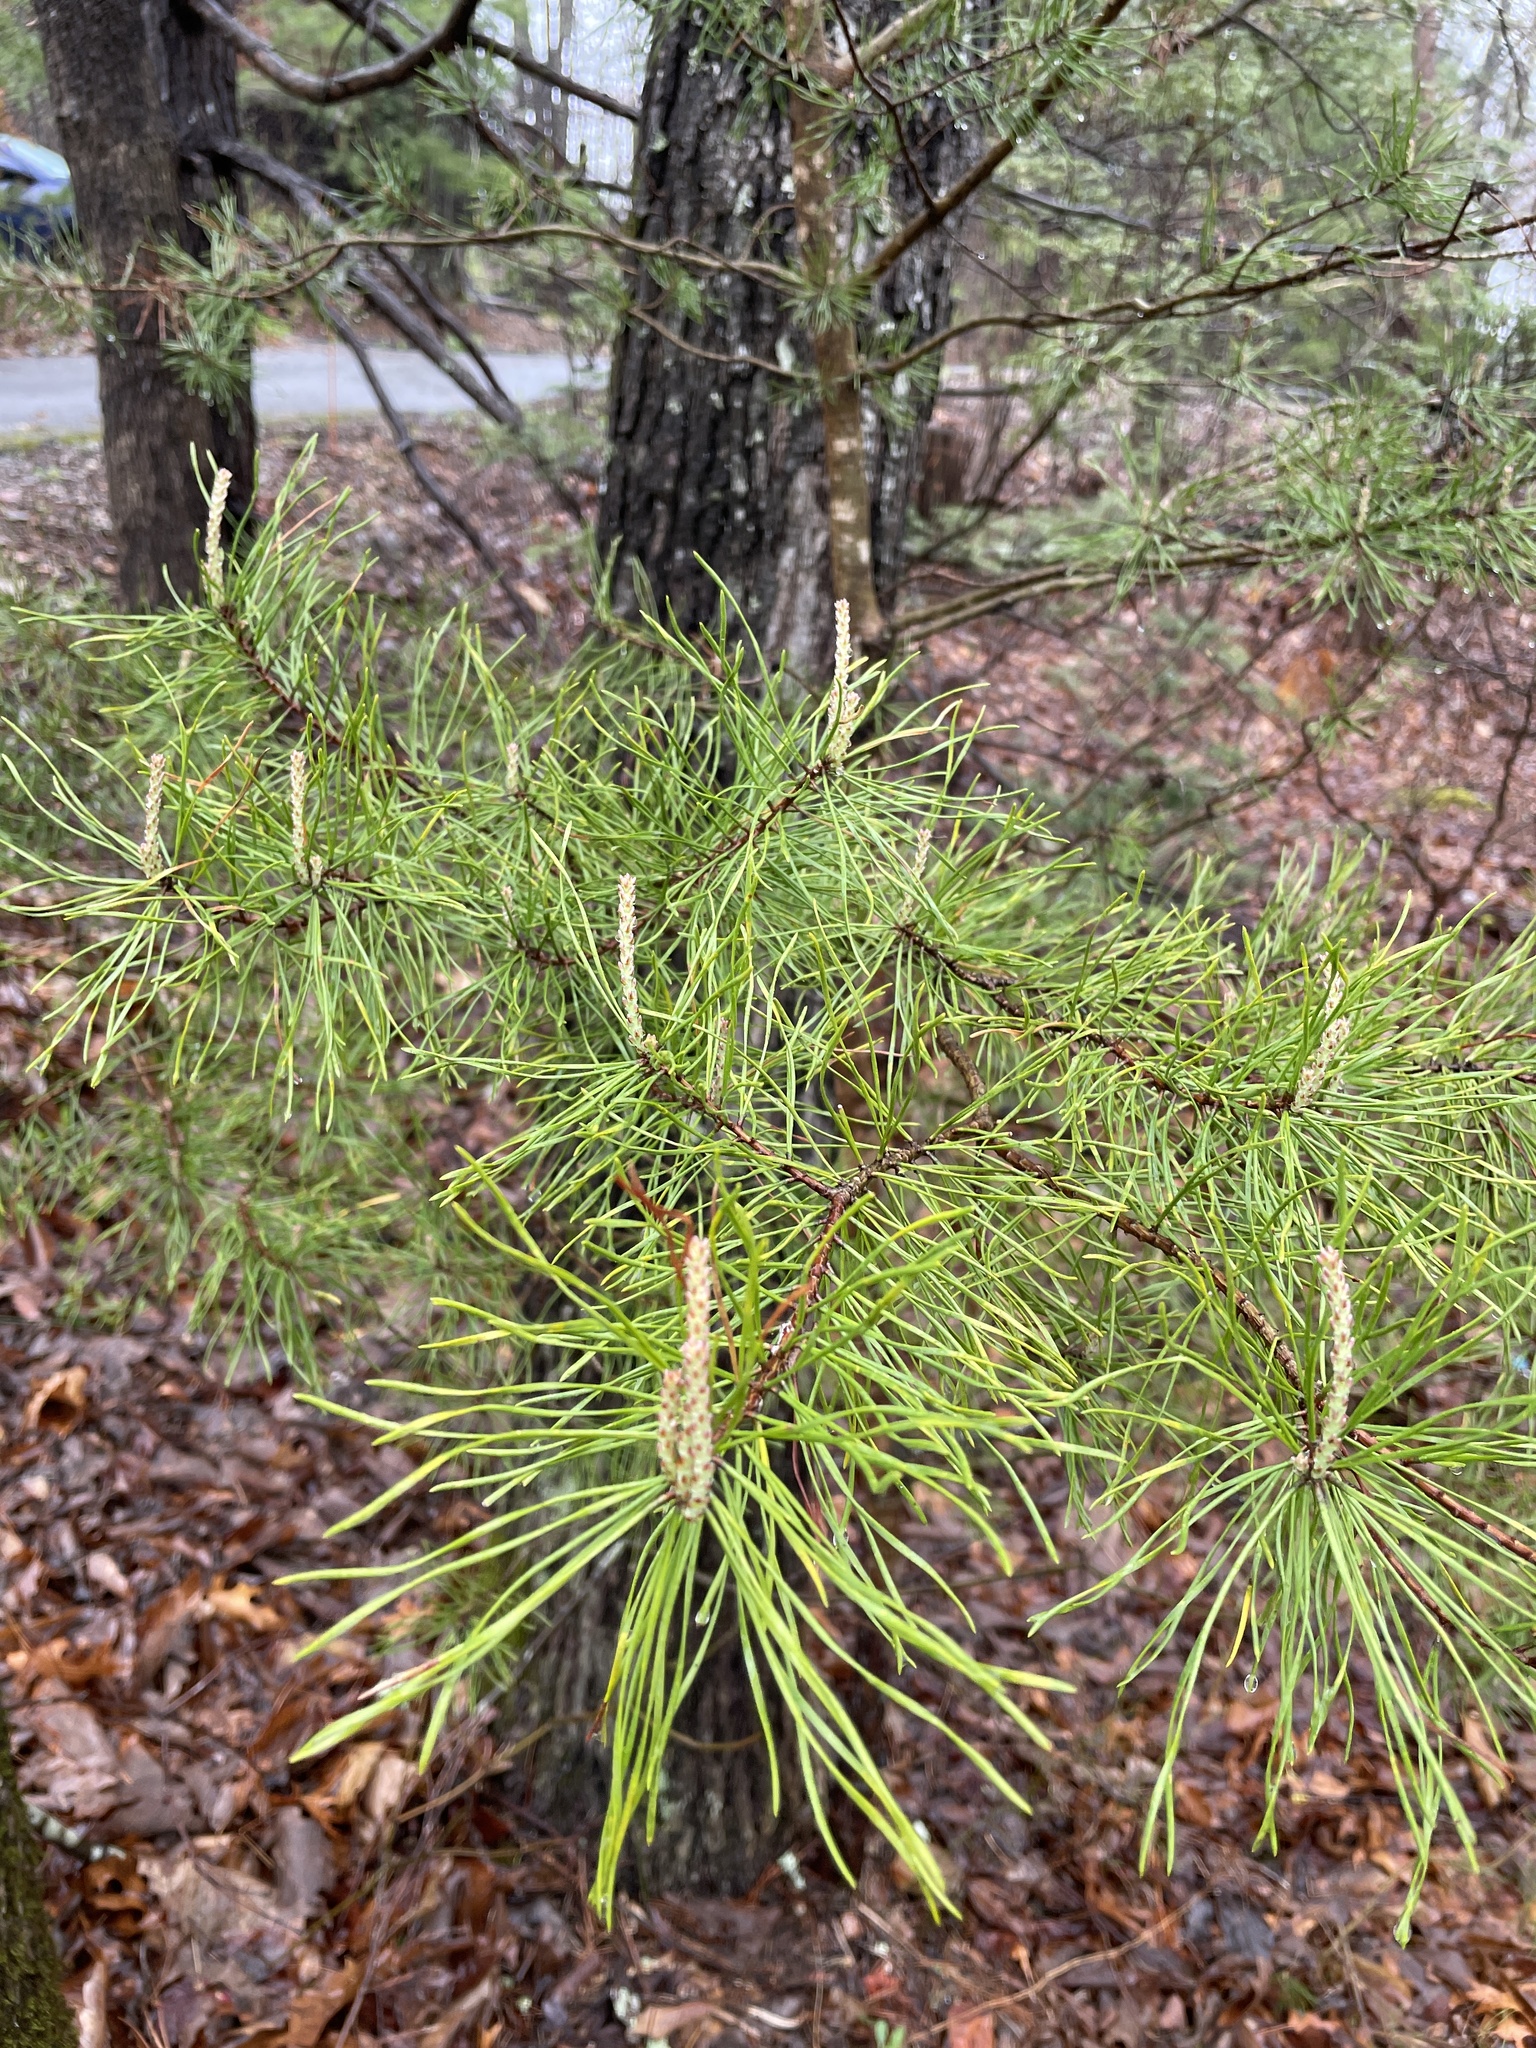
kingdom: Plantae
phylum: Tracheophyta
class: Pinopsida
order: Pinales
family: Pinaceae
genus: Pinus
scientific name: Pinus virginiana
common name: Scrub pine
